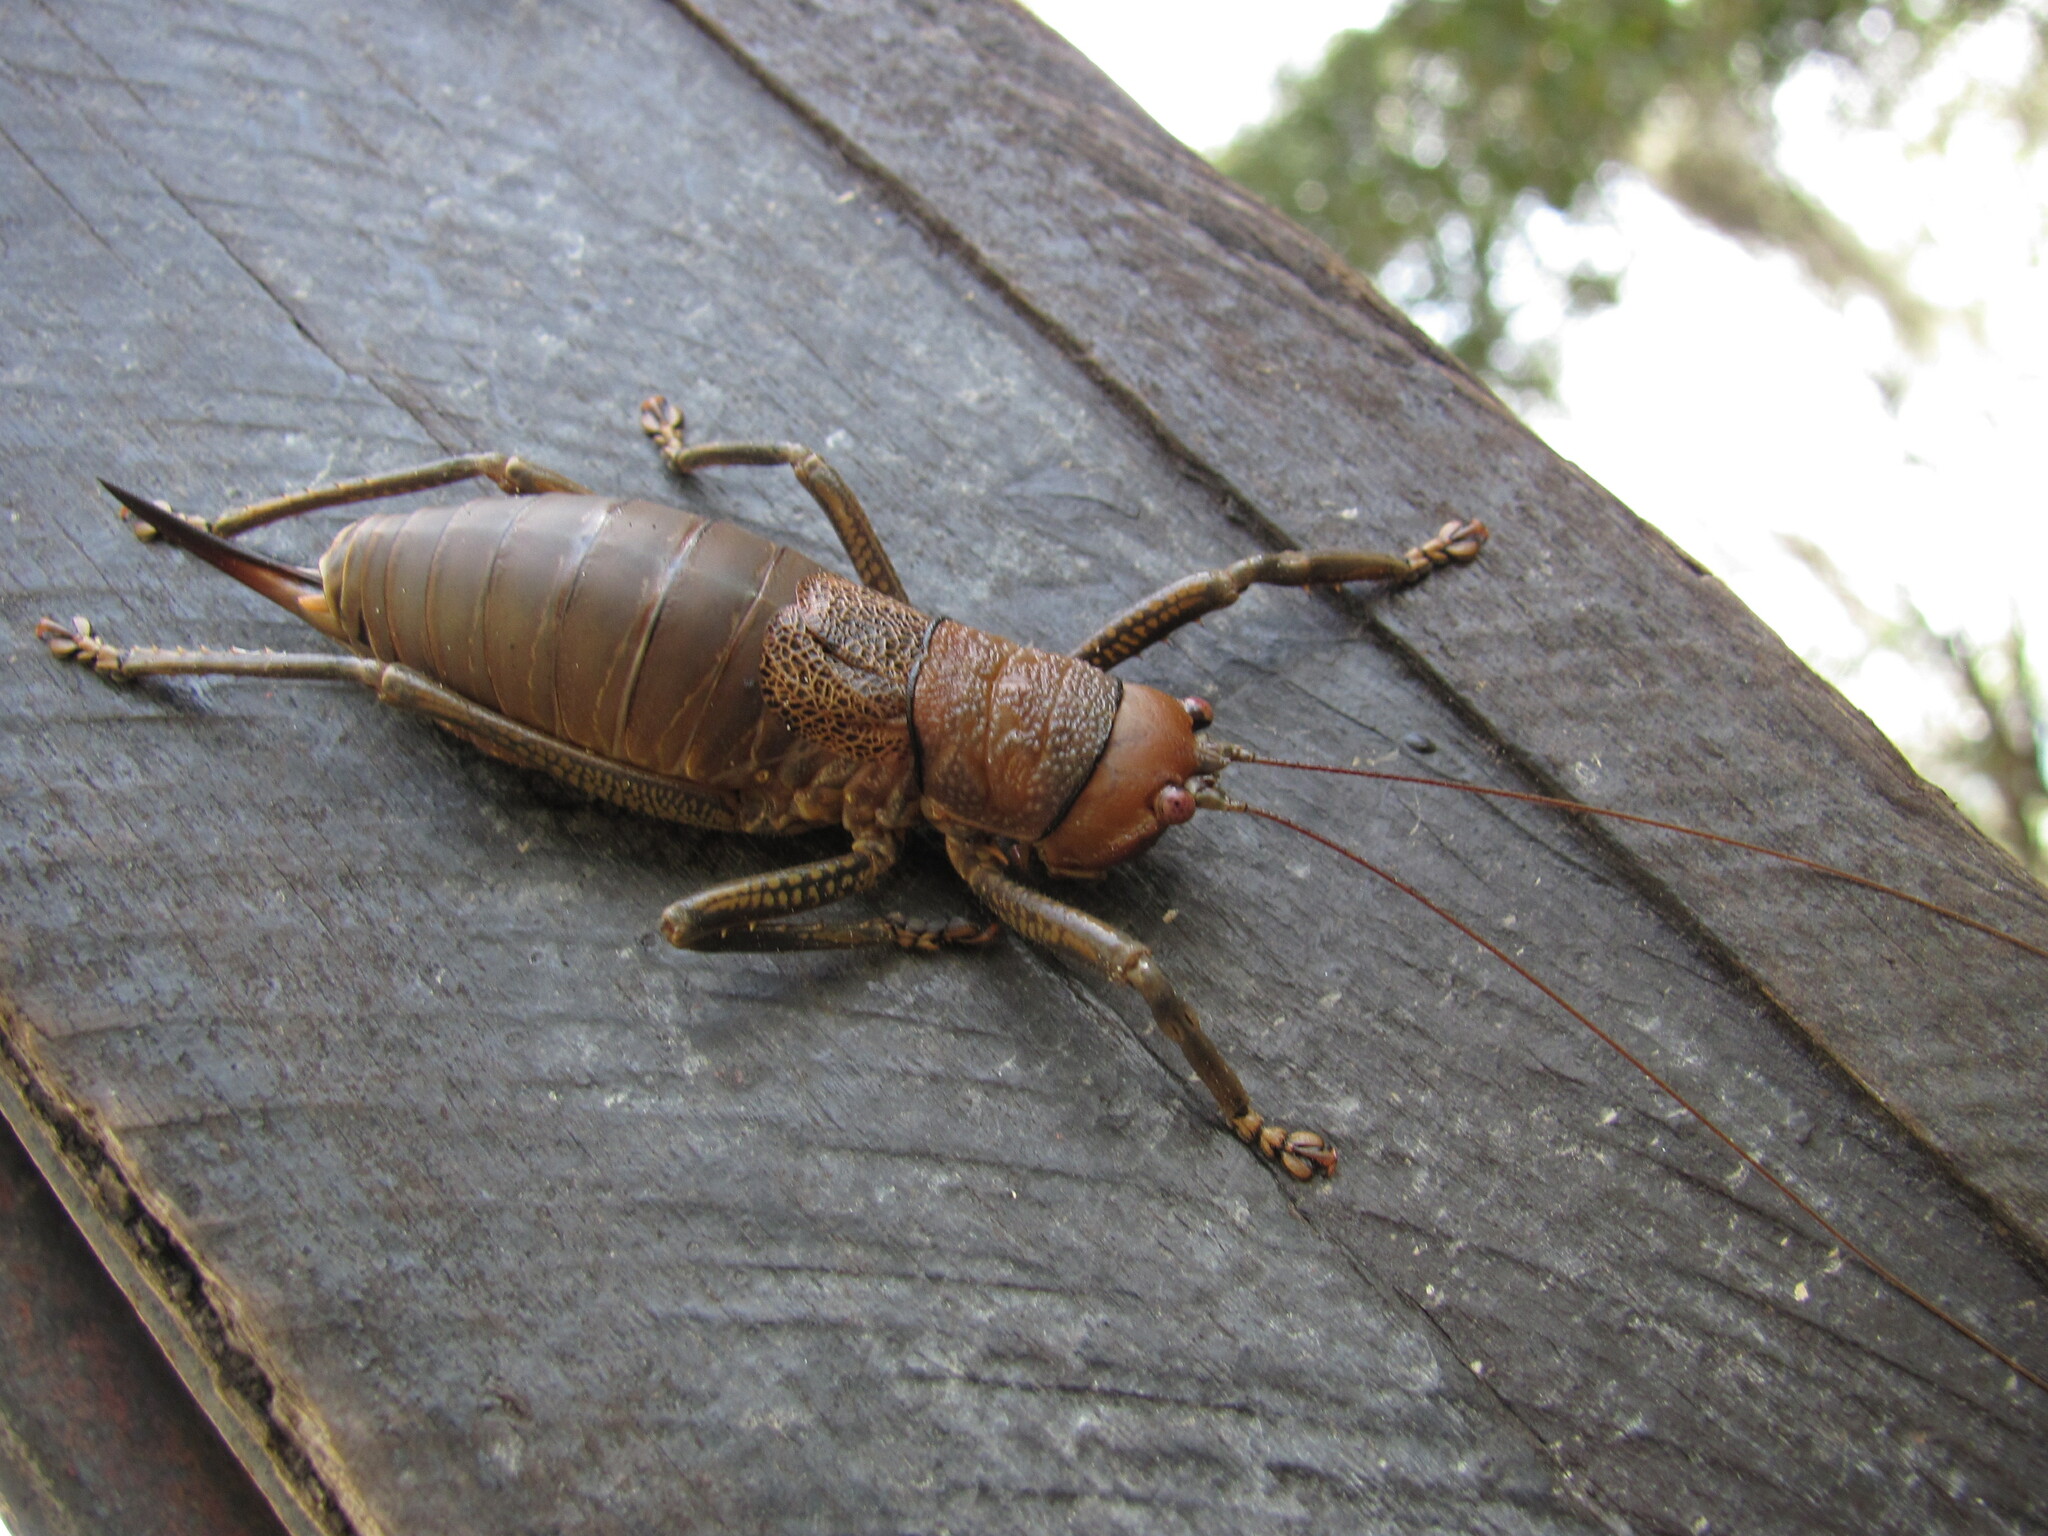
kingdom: Animalia
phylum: Arthropoda
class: Insecta
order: Orthoptera
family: Tettigoniidae
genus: Liparoscella
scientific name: Liparoscella modesta
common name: Wart-face katydid
